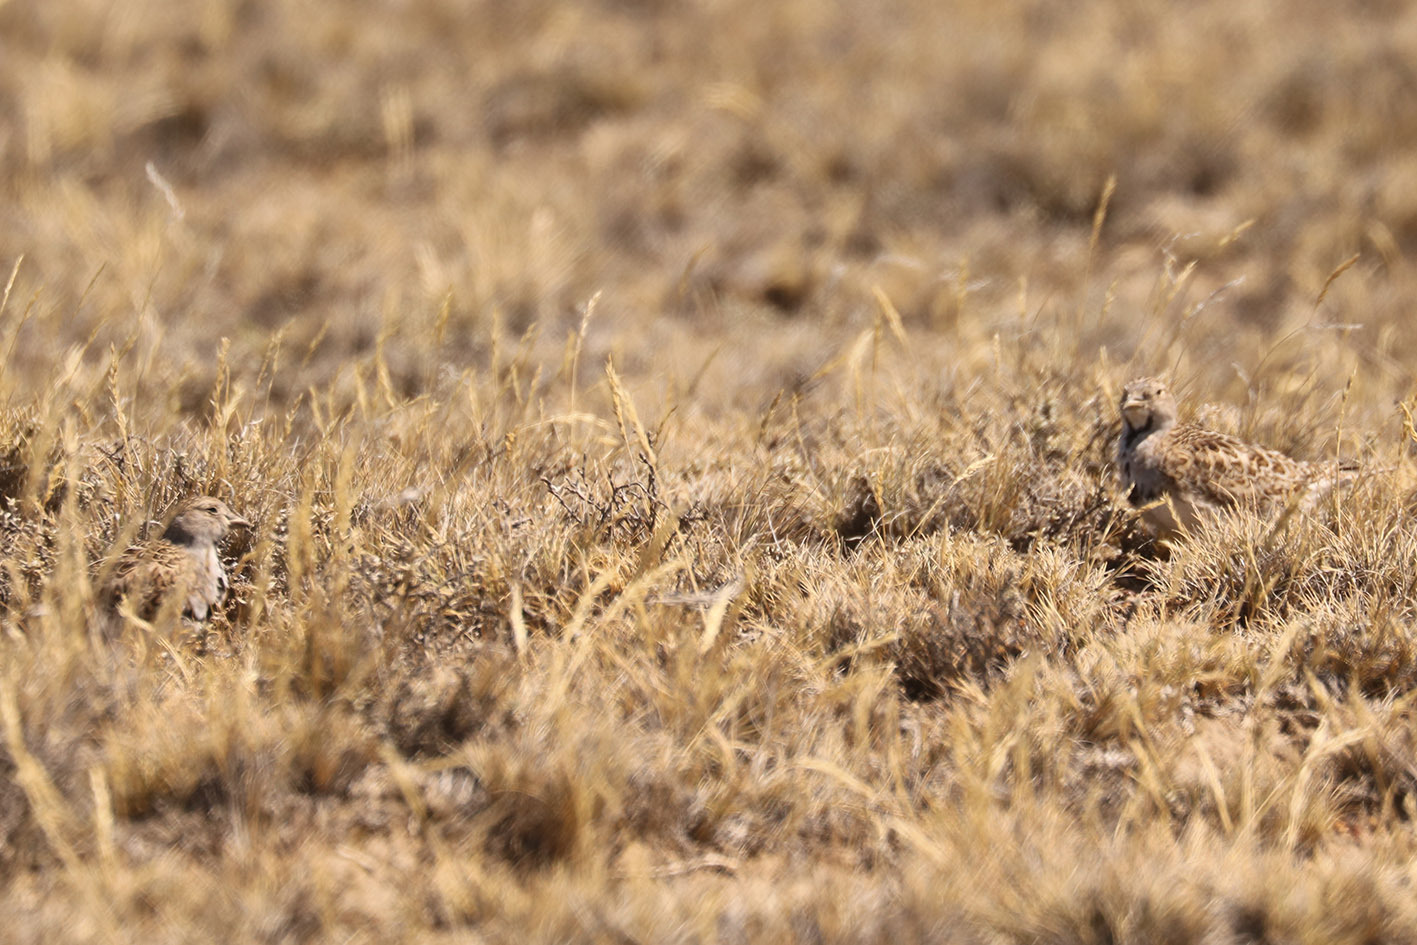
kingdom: Animalia
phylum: Chordata
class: Aves
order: Charadriiformes
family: Thinocoridae
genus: Thinocorus
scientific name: Thinocorus rumicivorus
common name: Least seedsnipe
